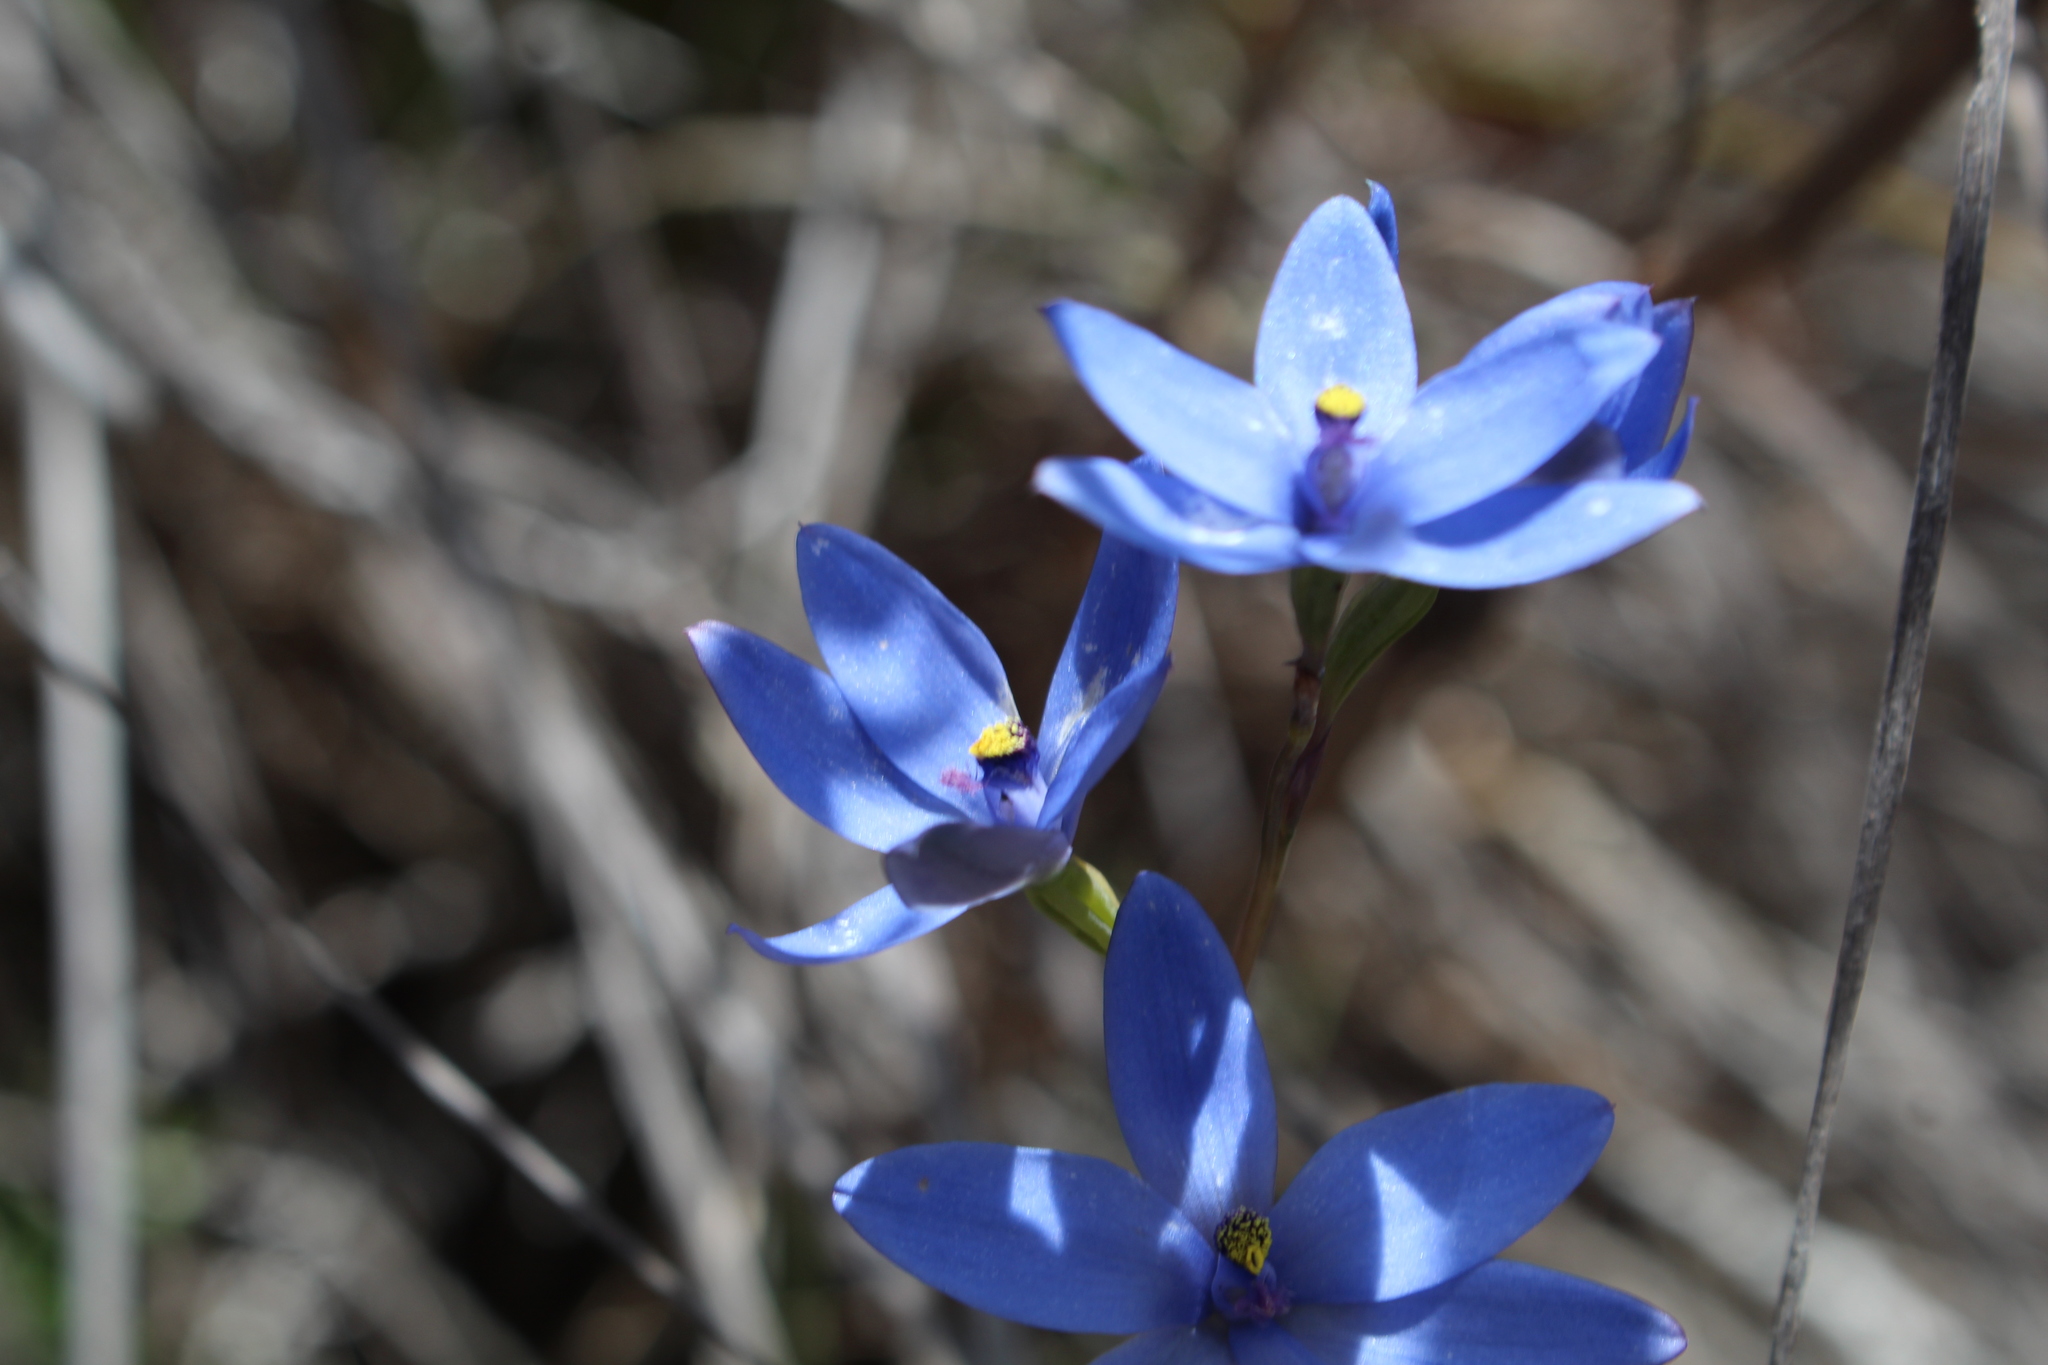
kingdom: Plantae
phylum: Tracheophyta
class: Liliopsida
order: Asparagales
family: Orchidaceae
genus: Thelymitra
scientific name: Thelymitra crinita
